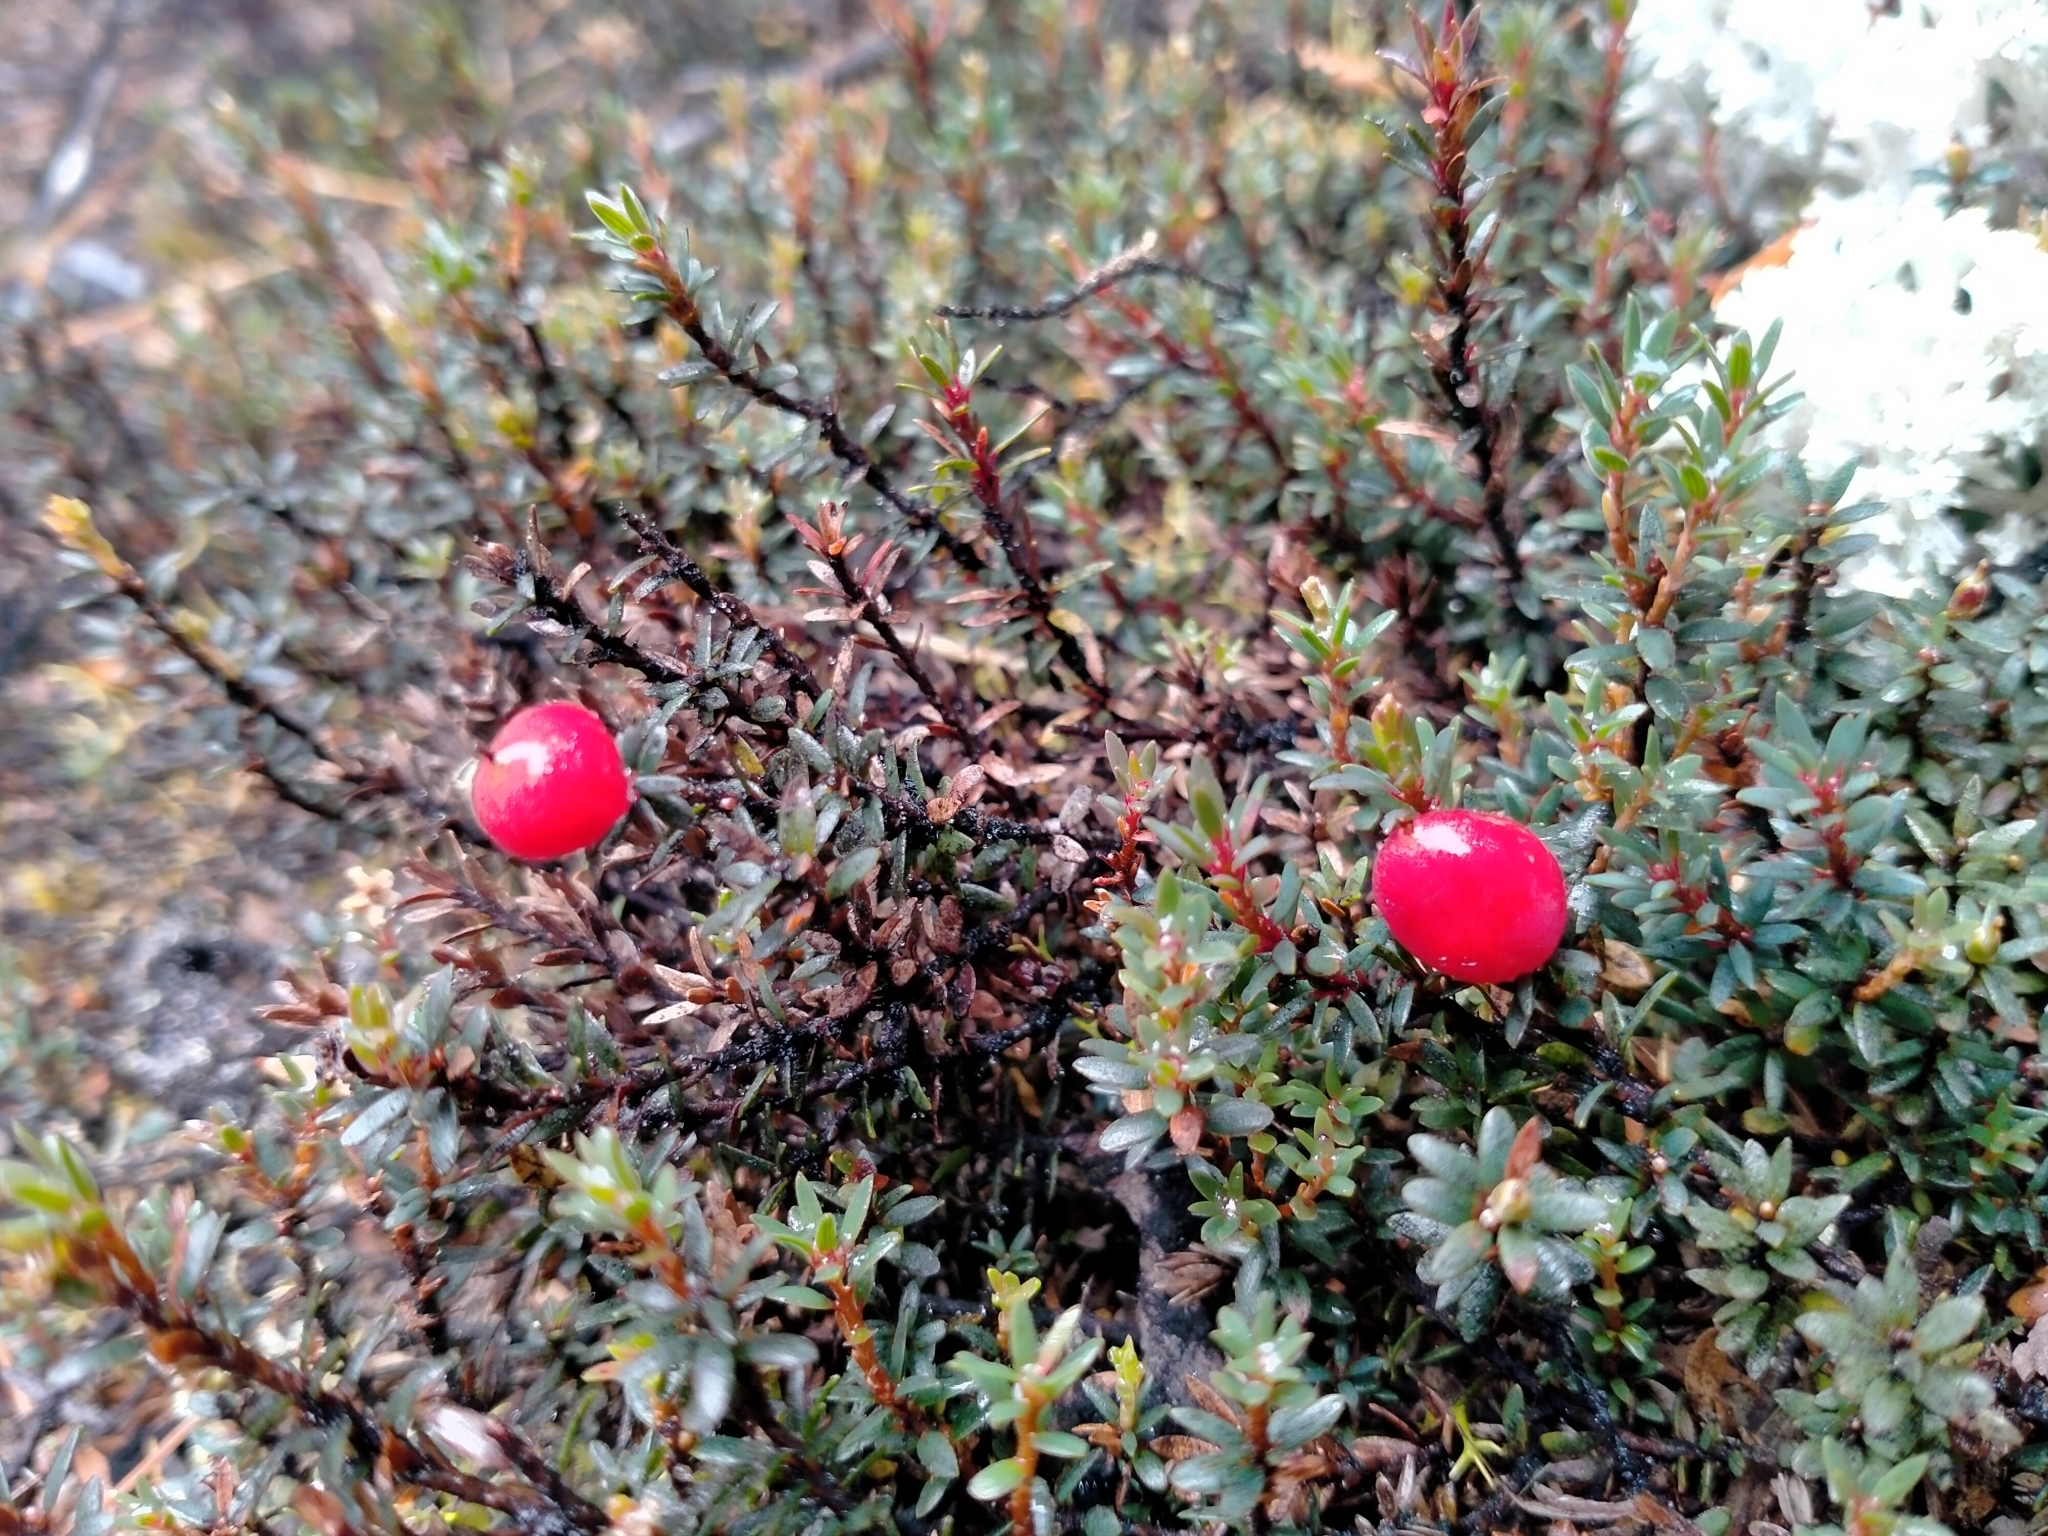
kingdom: Plantae
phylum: Tracheophyta
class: Magnoliopsida
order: Ericales
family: Ericaceae
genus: Pentachondra
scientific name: Pentachondra pumila
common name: Carpet-heath
